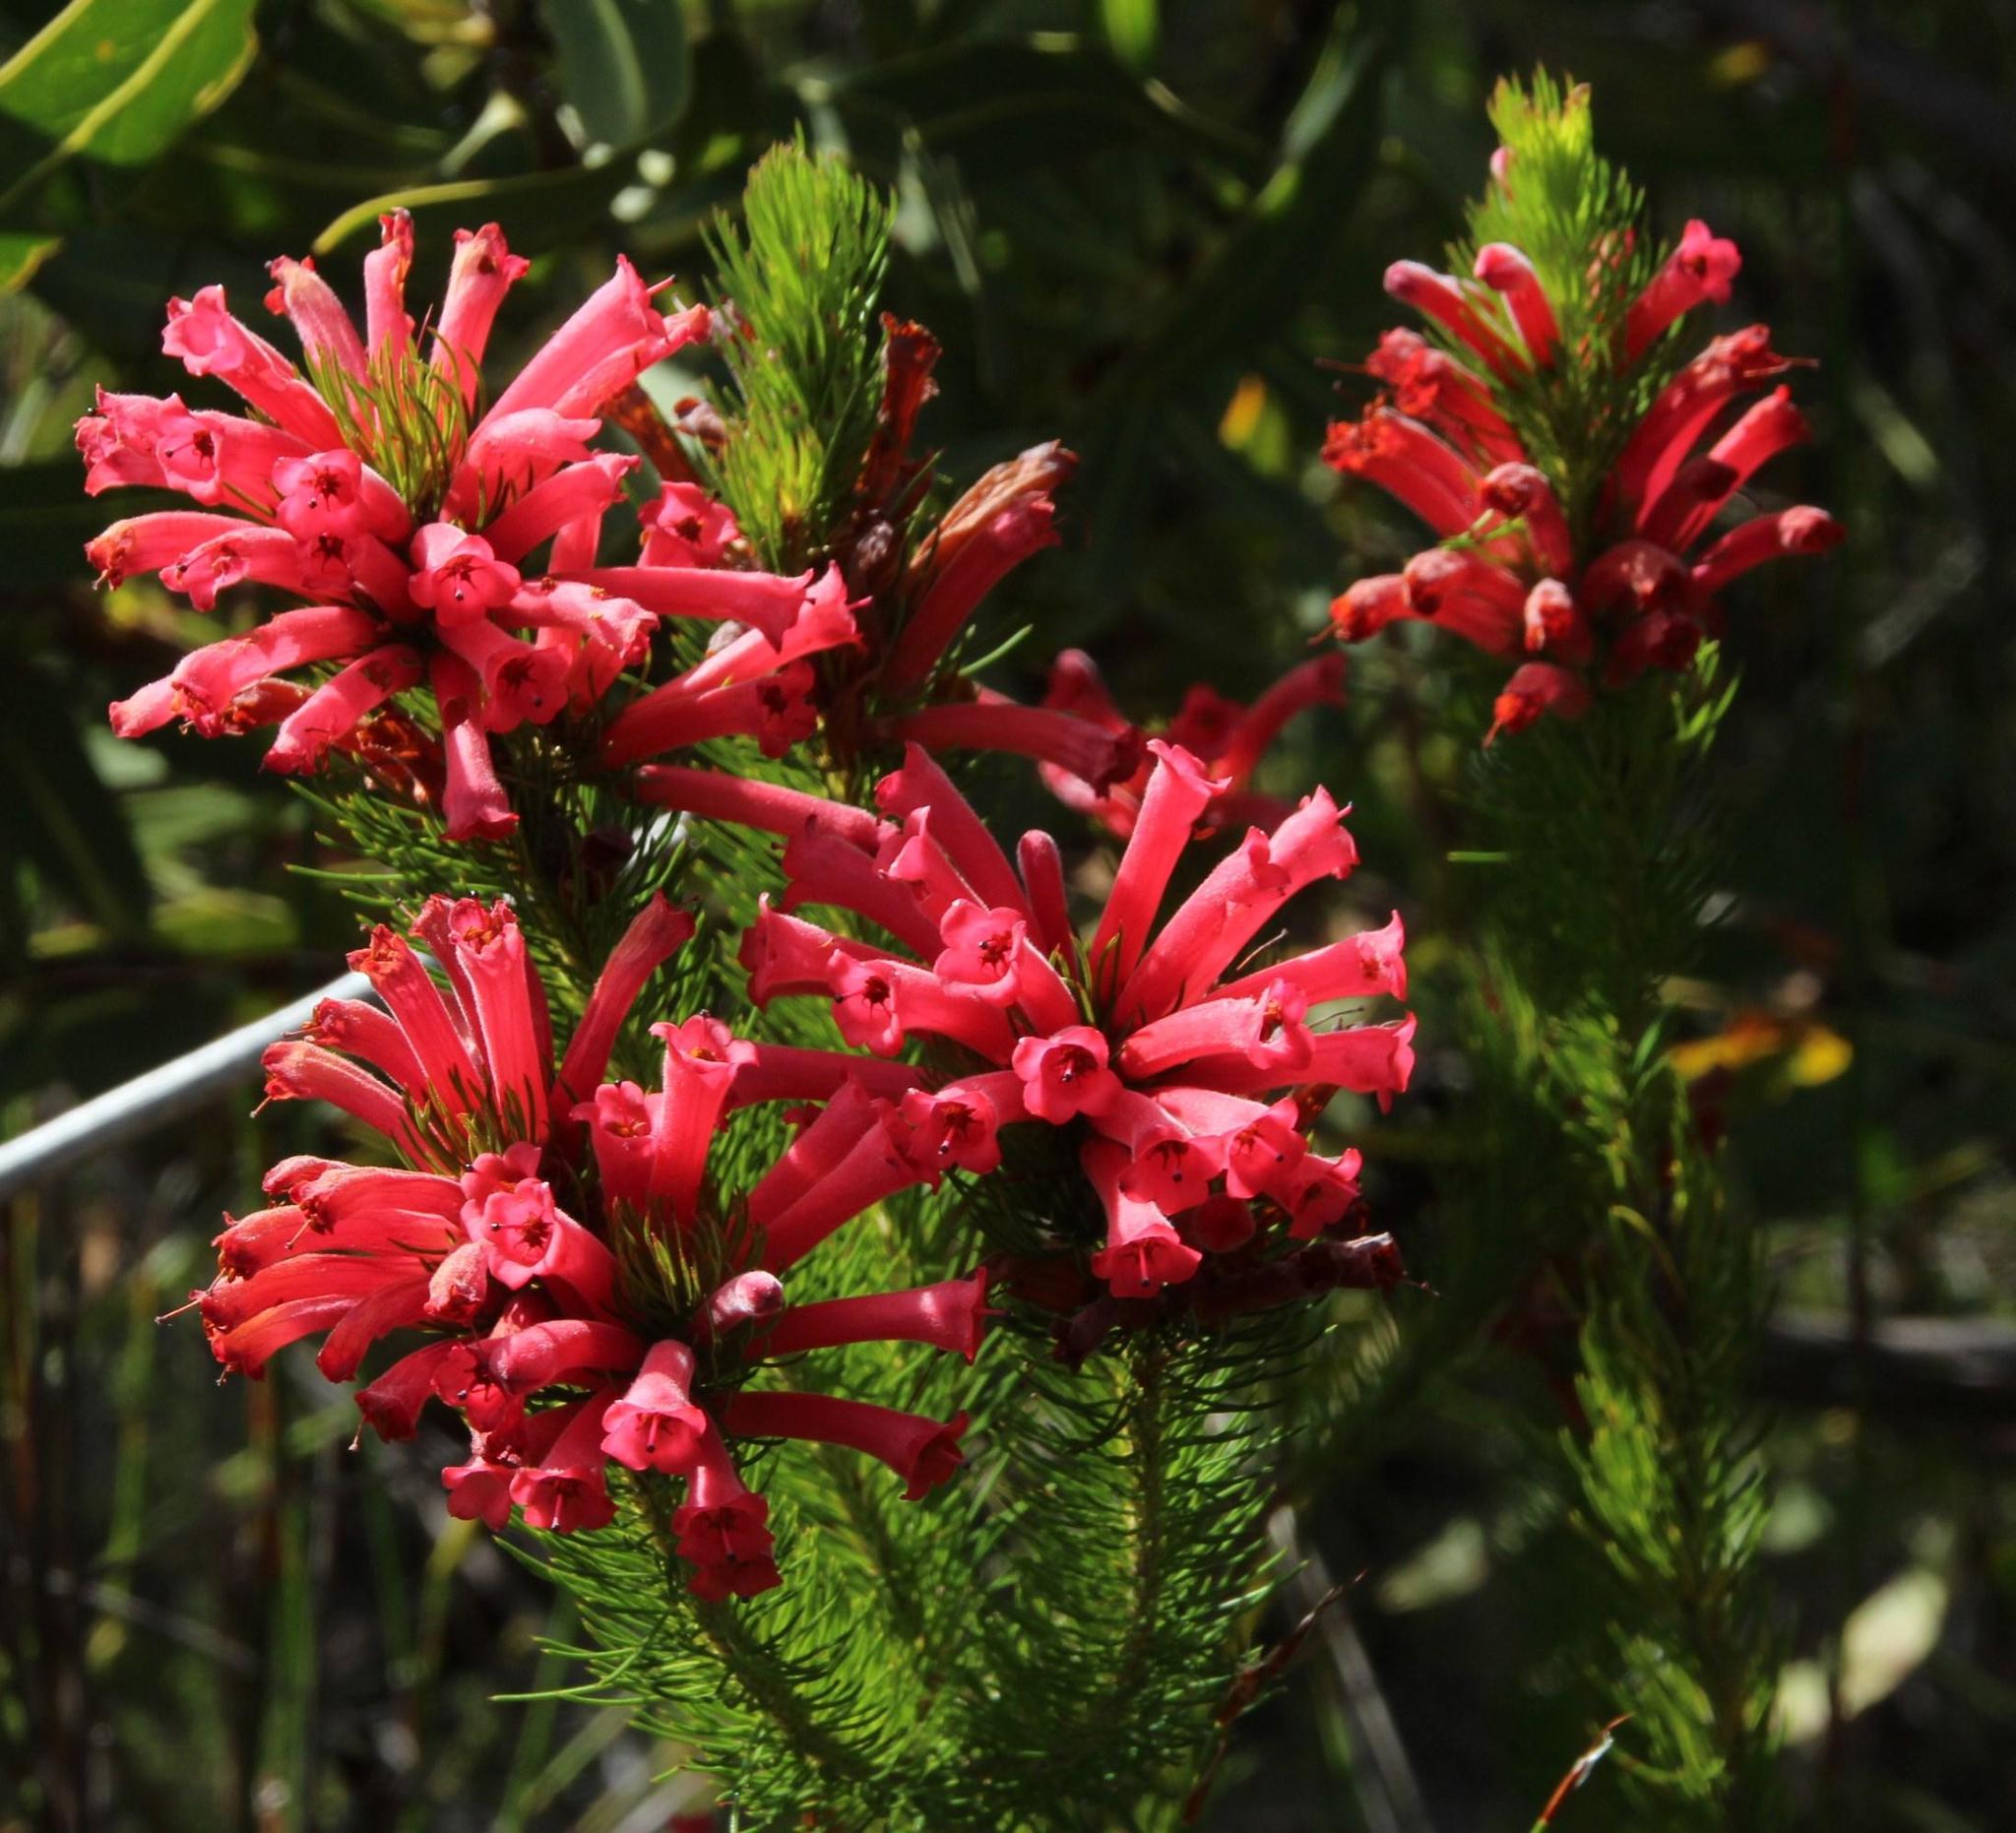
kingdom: Plantae
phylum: Tracheophyta
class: Magnoliopsida
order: Ericales
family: Ericaceae
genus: Erica
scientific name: Erica vestita
